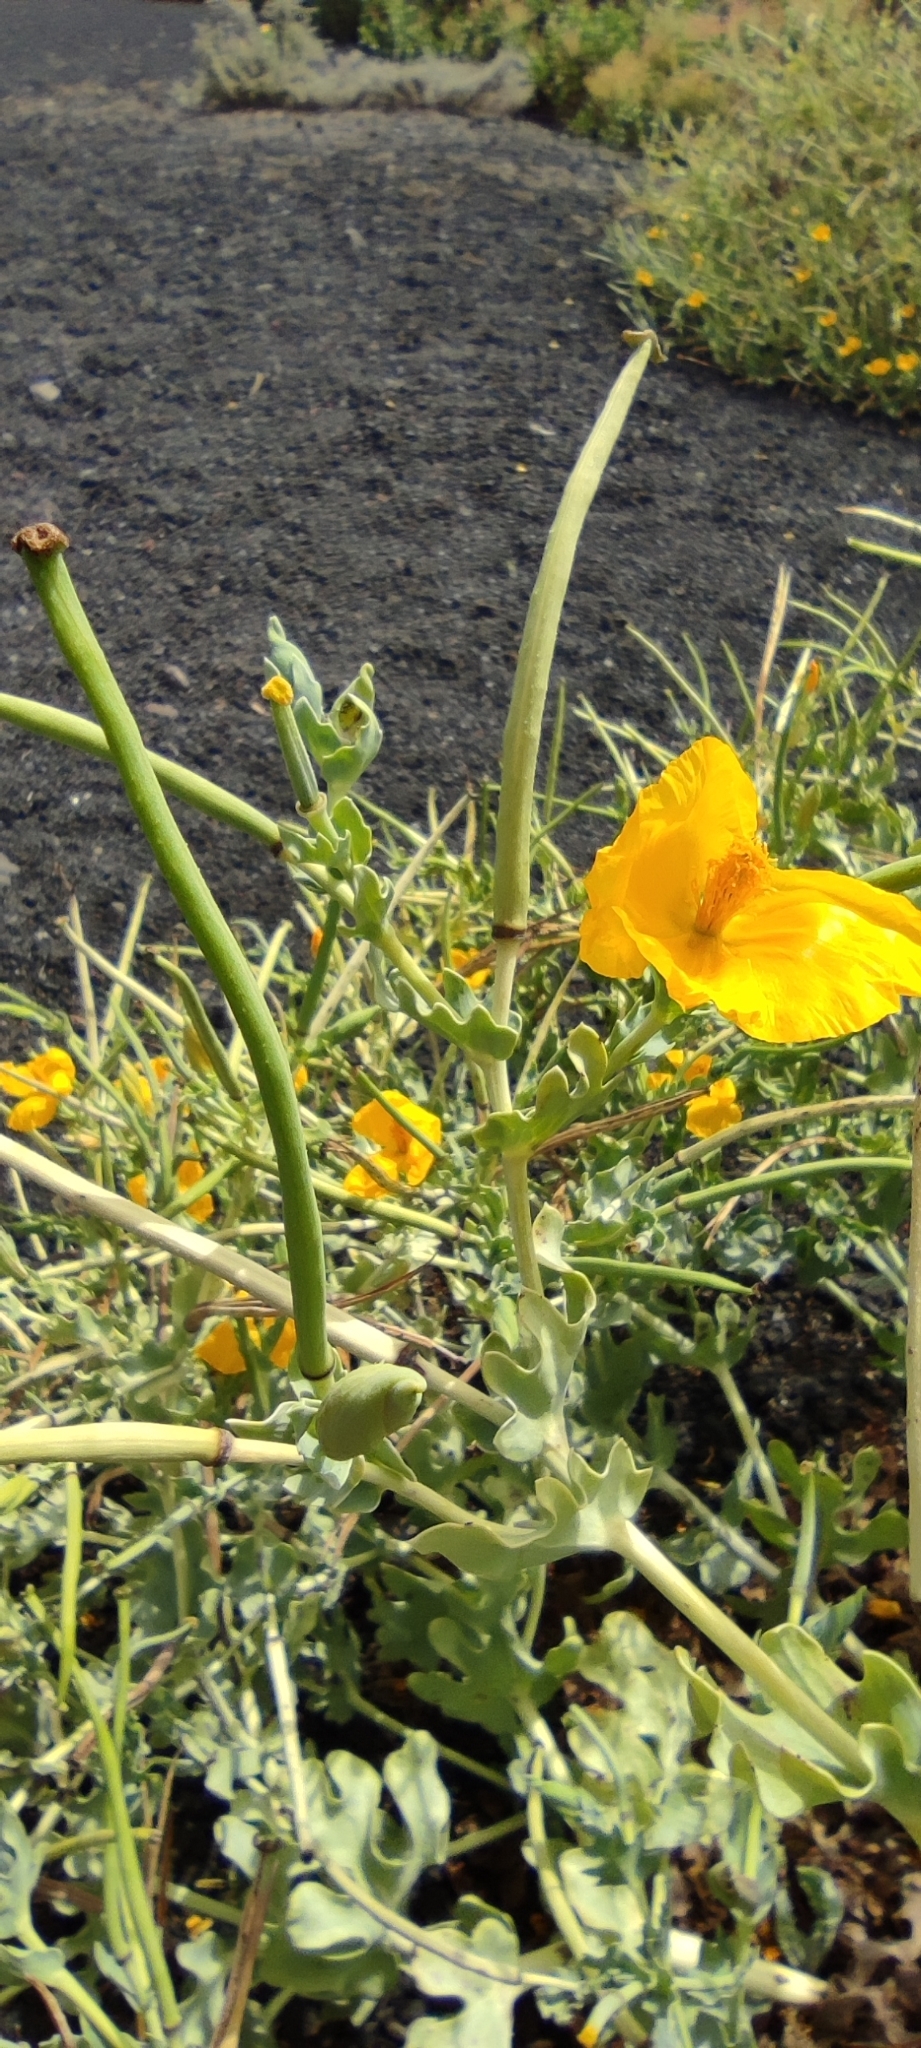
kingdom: Plantae
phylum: Tracheophyta
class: Magnoliopsida
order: Ranunculales
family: Papaveraceae
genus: Glaucium
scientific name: Glaucium flavum
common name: Yellow horned-poppy
